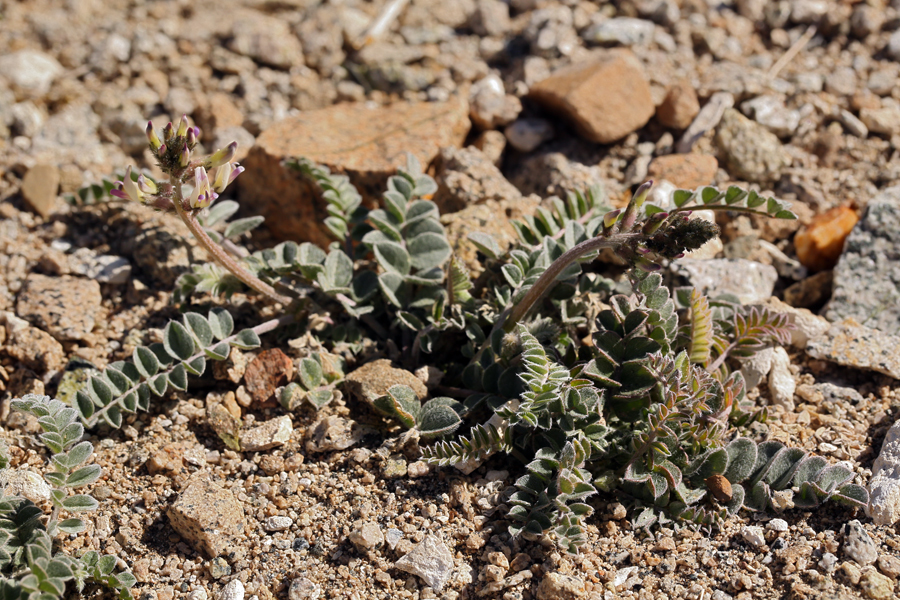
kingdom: Plantae
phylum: Tracheophyta
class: Magnoliopsida
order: Fabales
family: Fabaceae
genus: Astragalus
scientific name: Astragalus layneae
